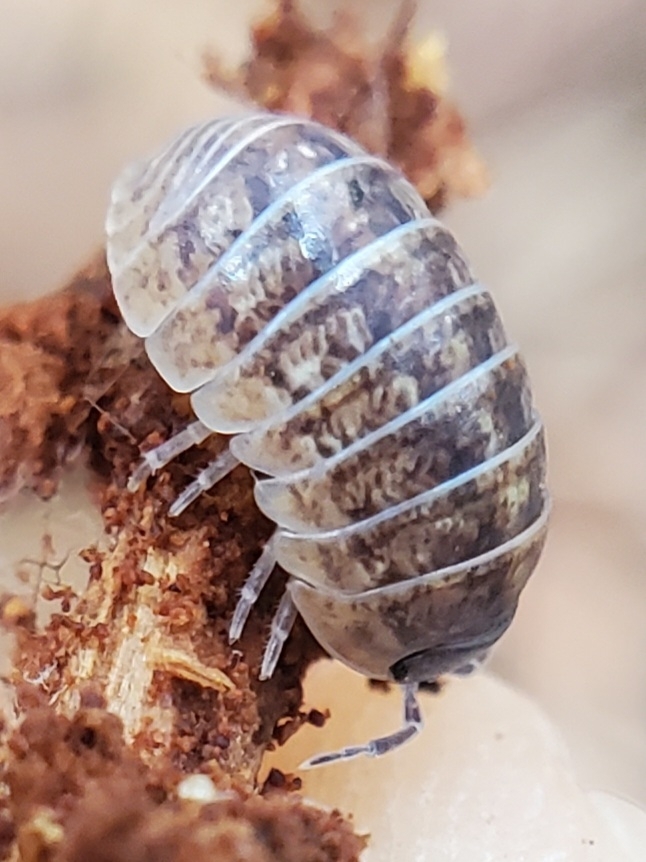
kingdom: Animalia
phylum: Arthropoda
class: Malacostraca
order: Isopoda
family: Armadillidiidae
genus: Armadillidium
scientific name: Armadillidium vulgare
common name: Common pill woodlouse
